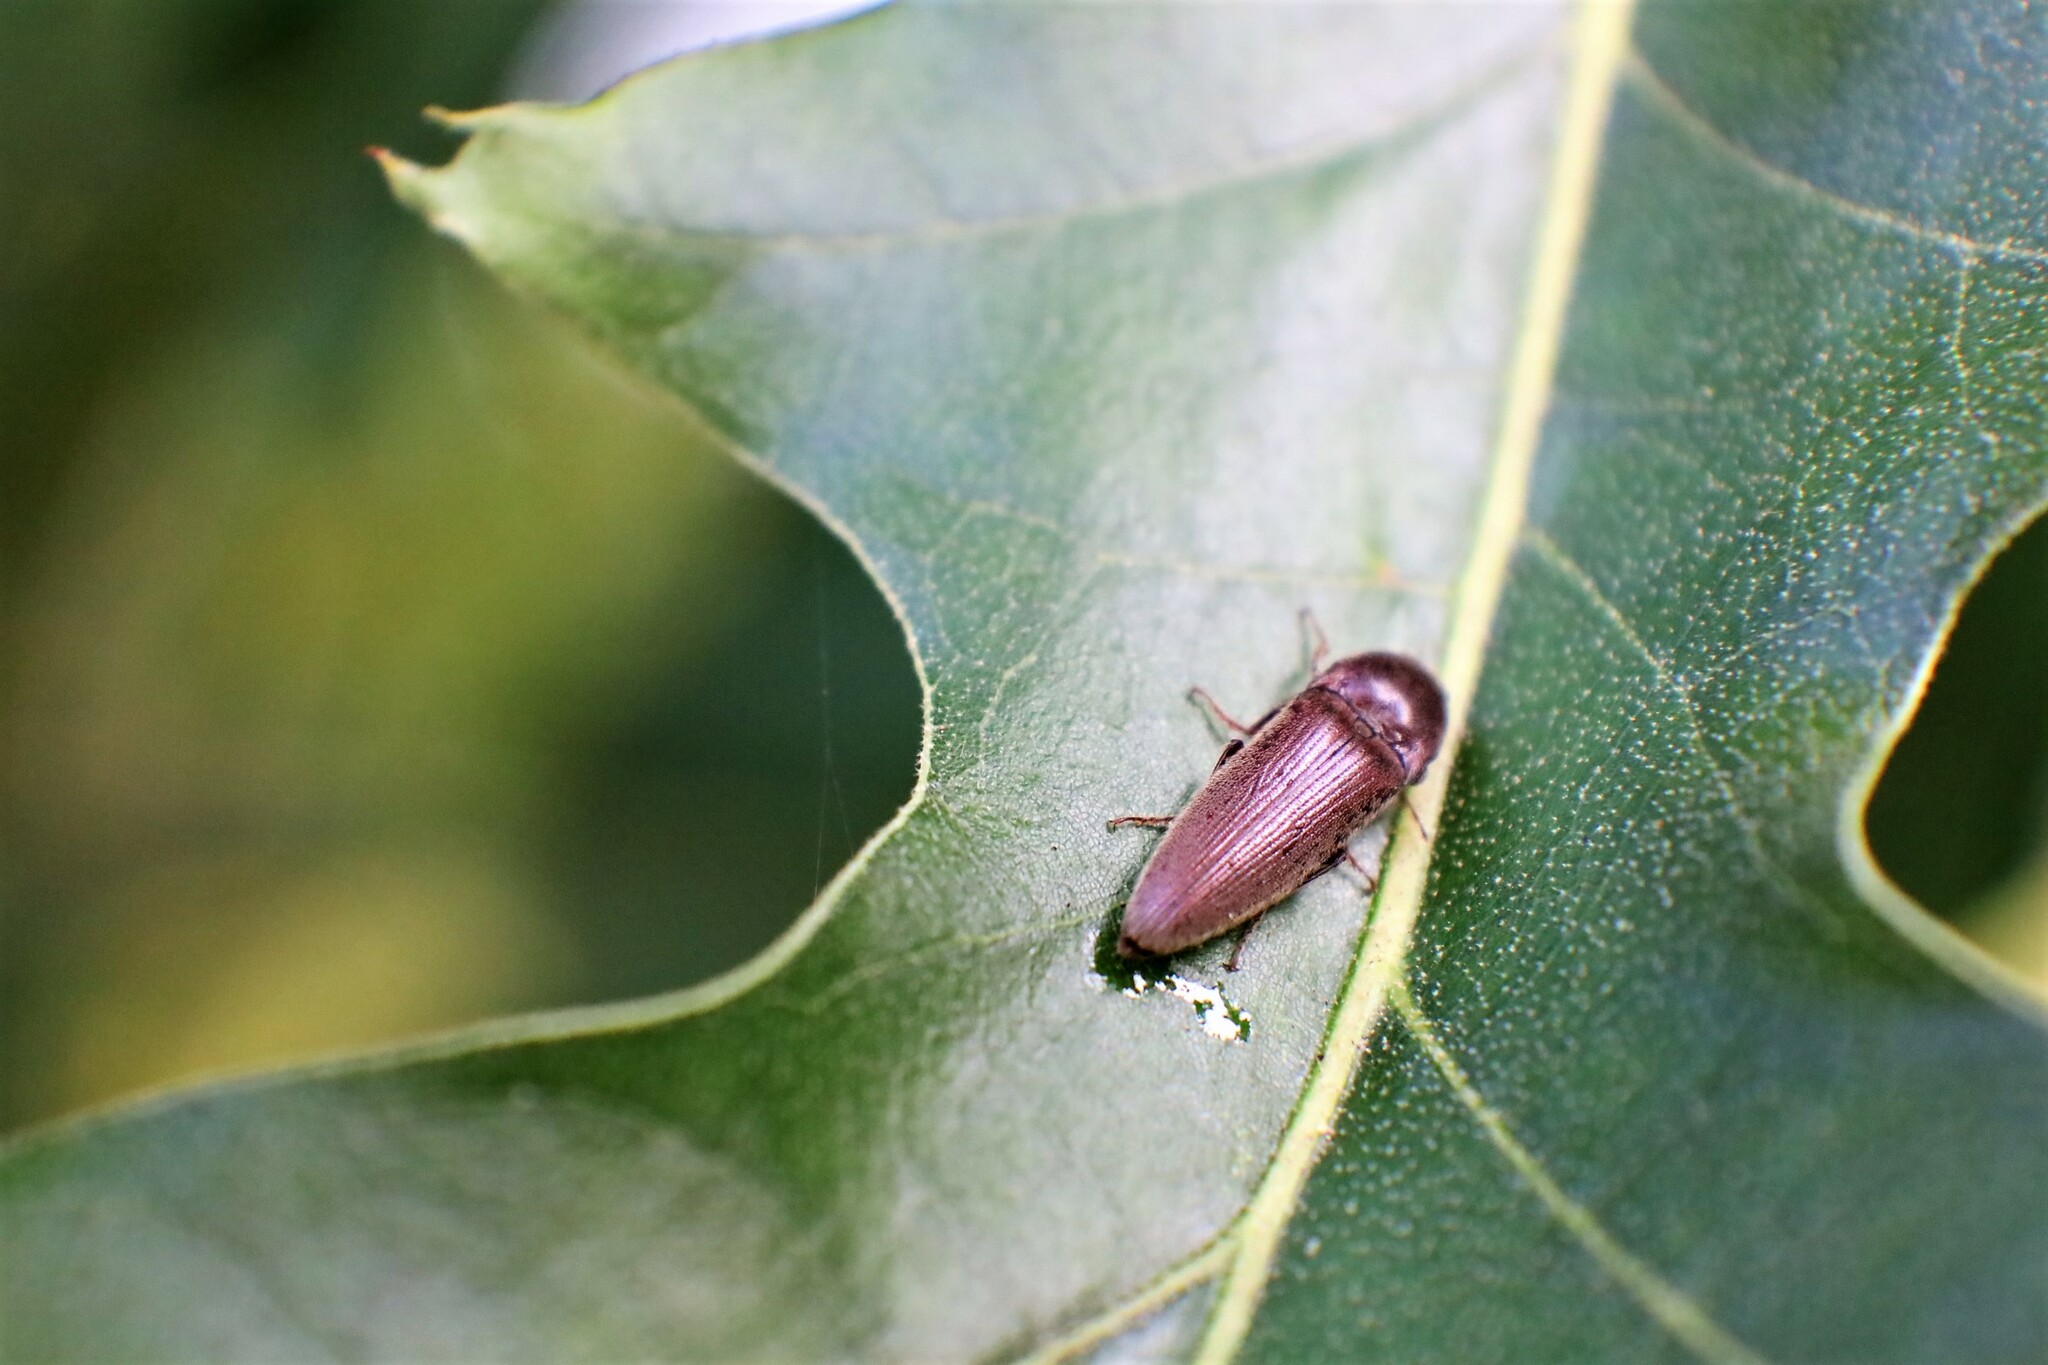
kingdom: Animalia
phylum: Arthropoda
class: Insecta
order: Coleoptera
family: Elateridae
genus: Melanotus
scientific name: Melanotus
